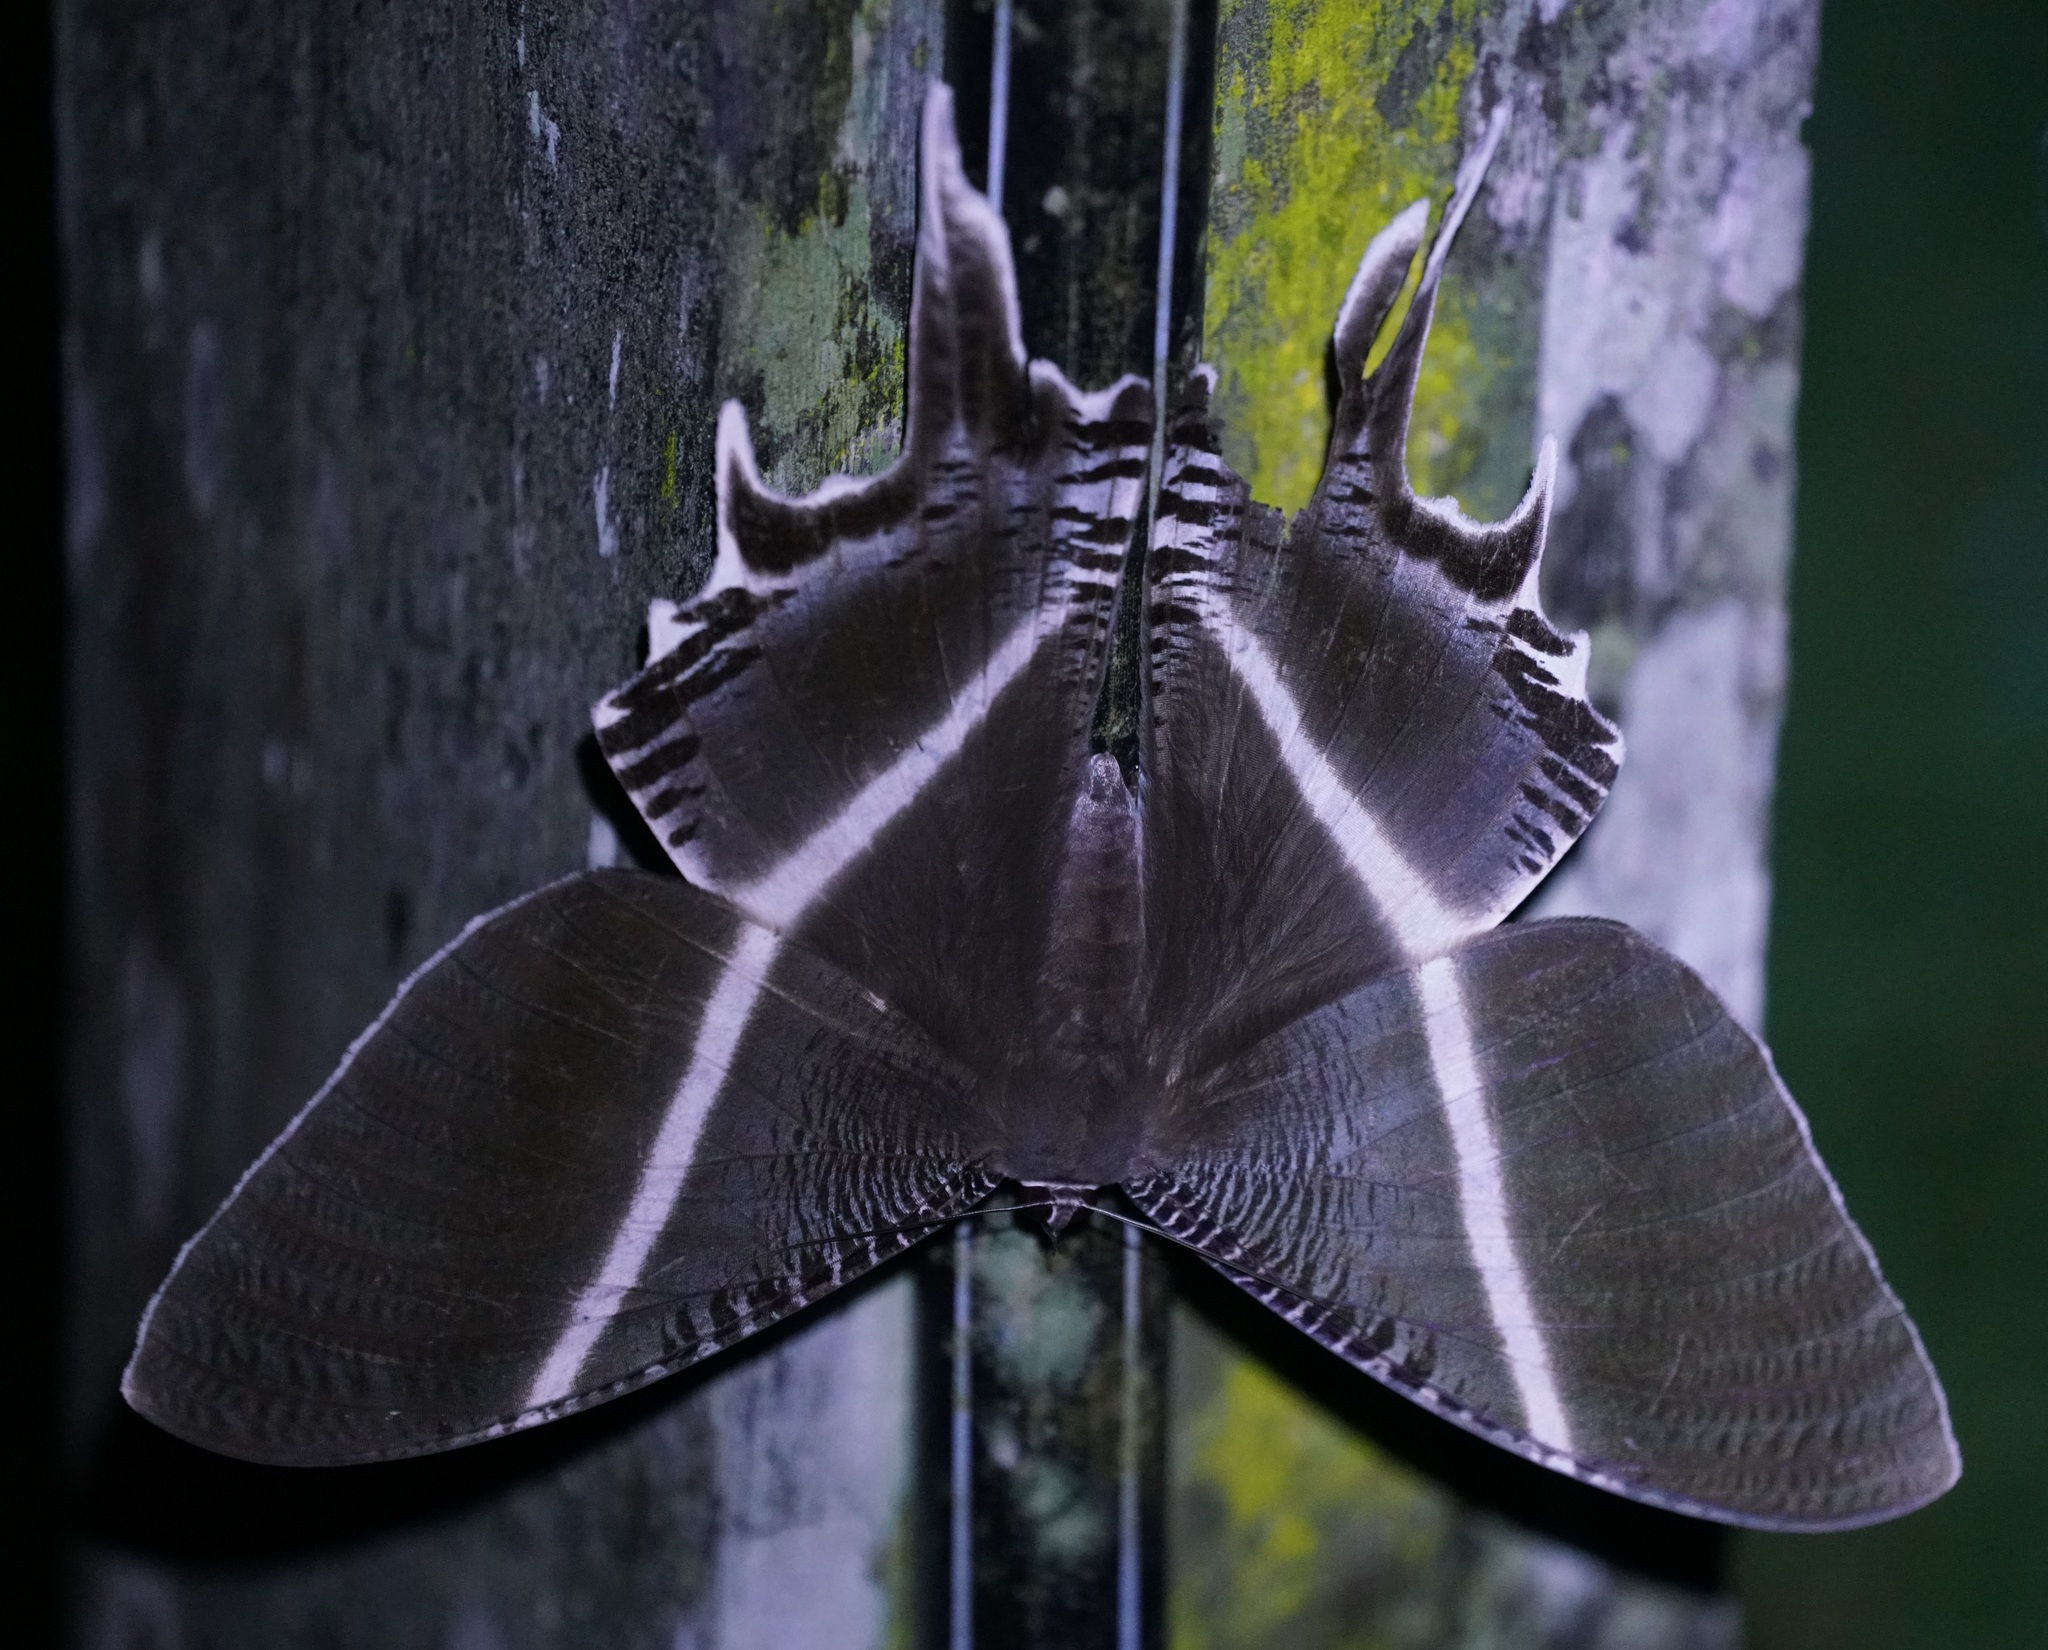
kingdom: Animalia
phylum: Arthropoda
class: Insecta
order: Lepidoptera
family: Uraniidae
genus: Lyssa
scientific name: Lyssa menoetius
